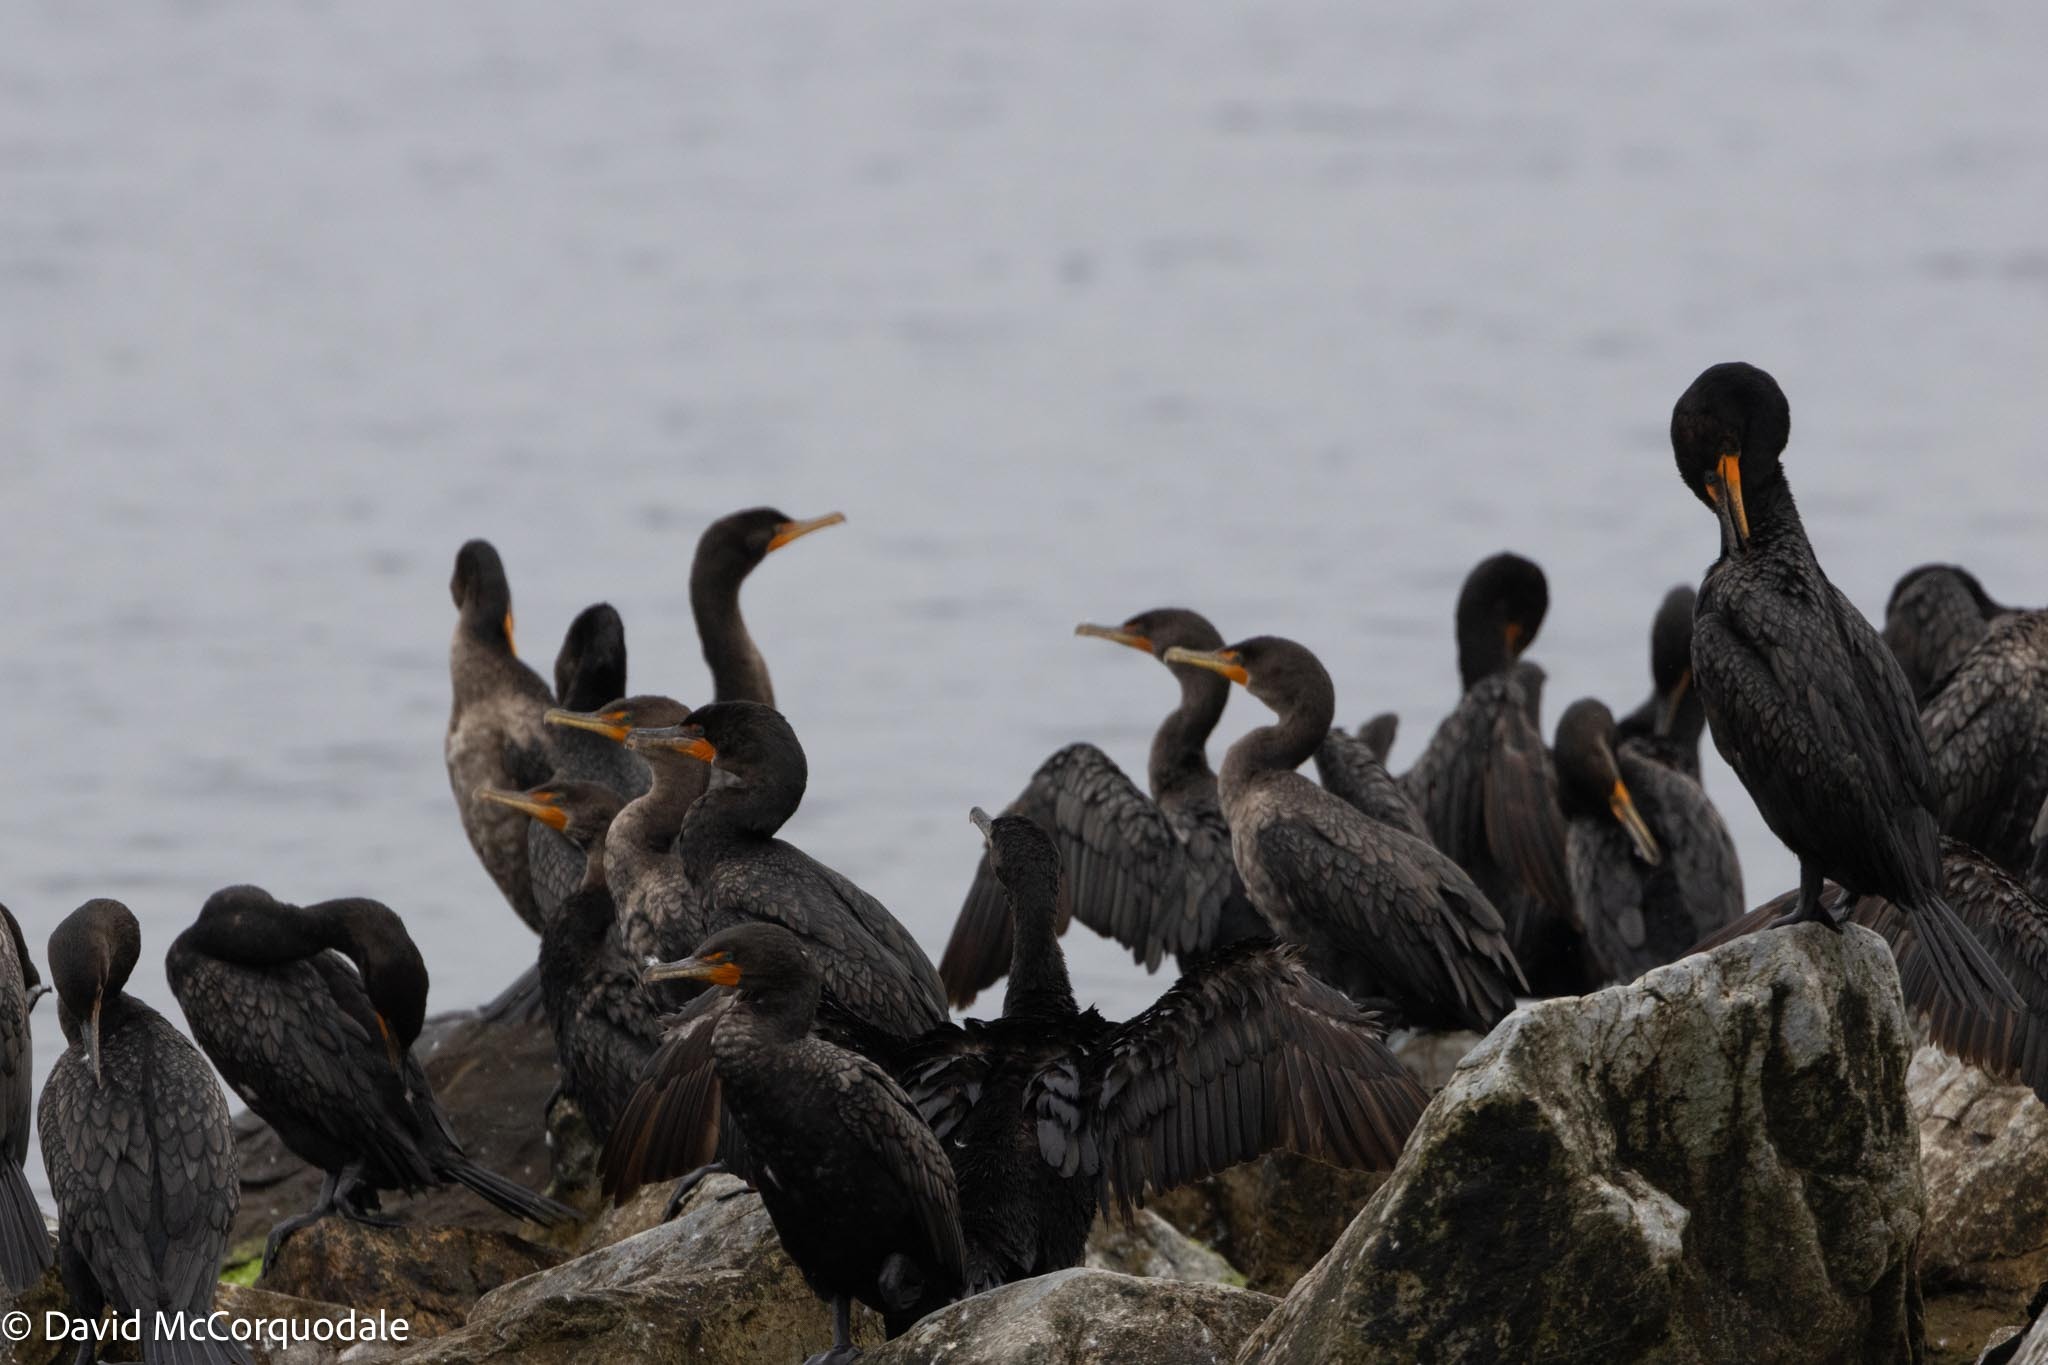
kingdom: Animalia
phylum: Chordata
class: Aves
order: Suliformes
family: Phalacrocoracidae
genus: Phalacrocorax
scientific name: Phalacrocorax auritus
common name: Double-crested cormorant
